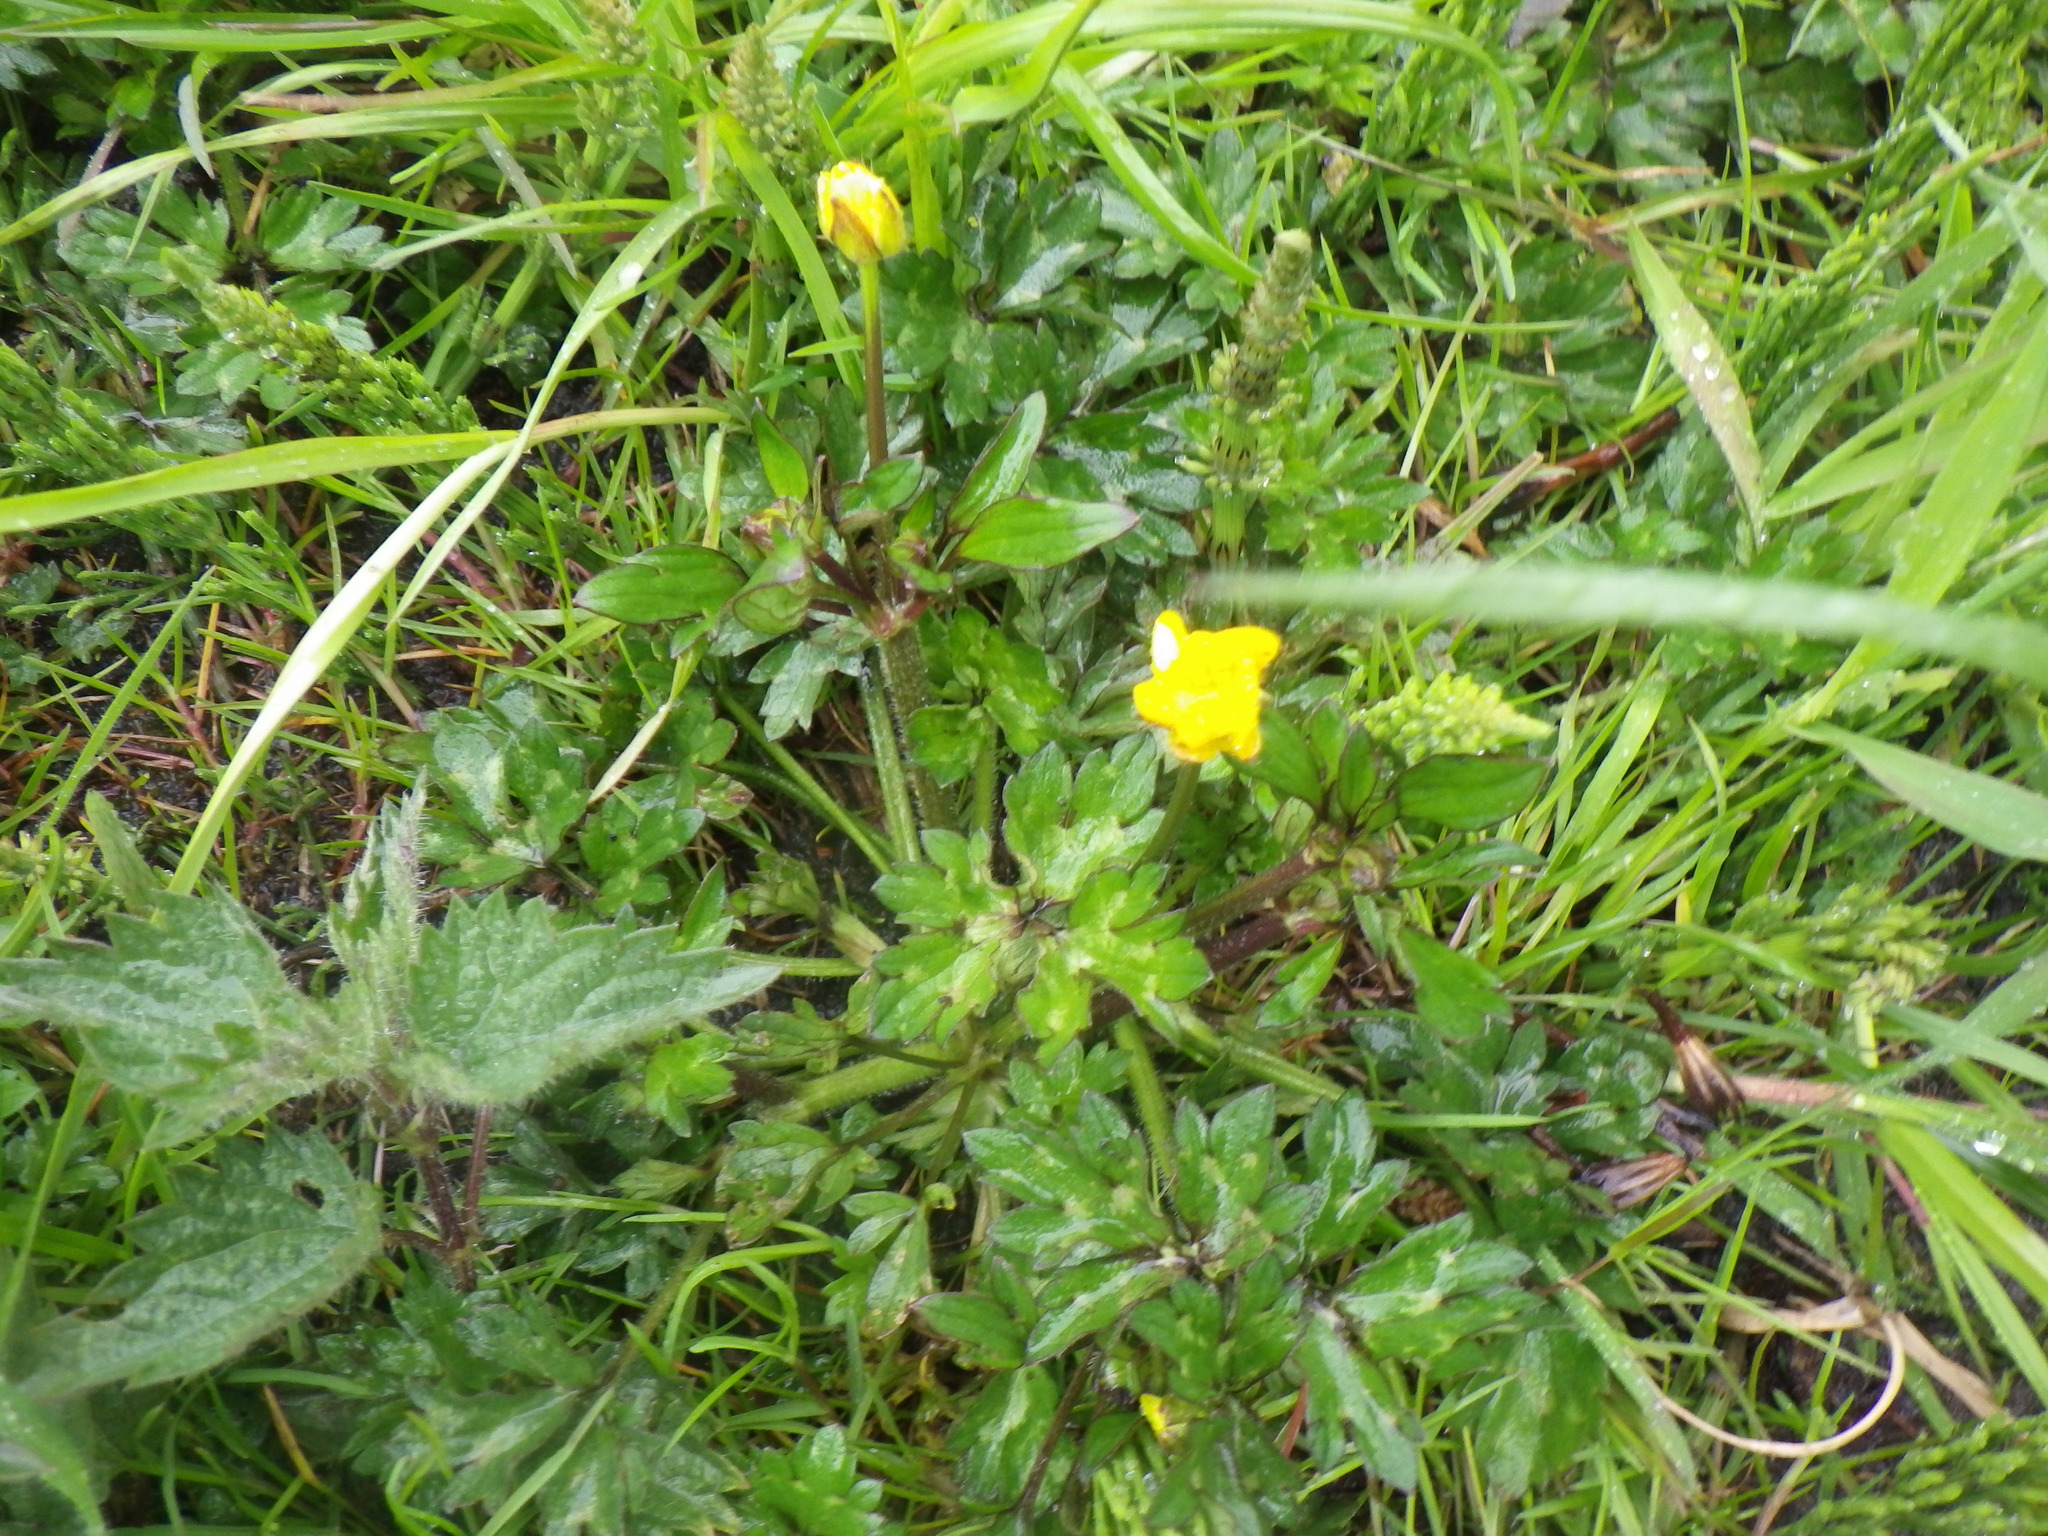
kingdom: Plantae
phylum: Tracheophyta
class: Magnoliopsida
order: Ranunculales
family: Ranunculaceae
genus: Ranunculus
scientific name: Ranunculus repens
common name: Creeping buttercup
